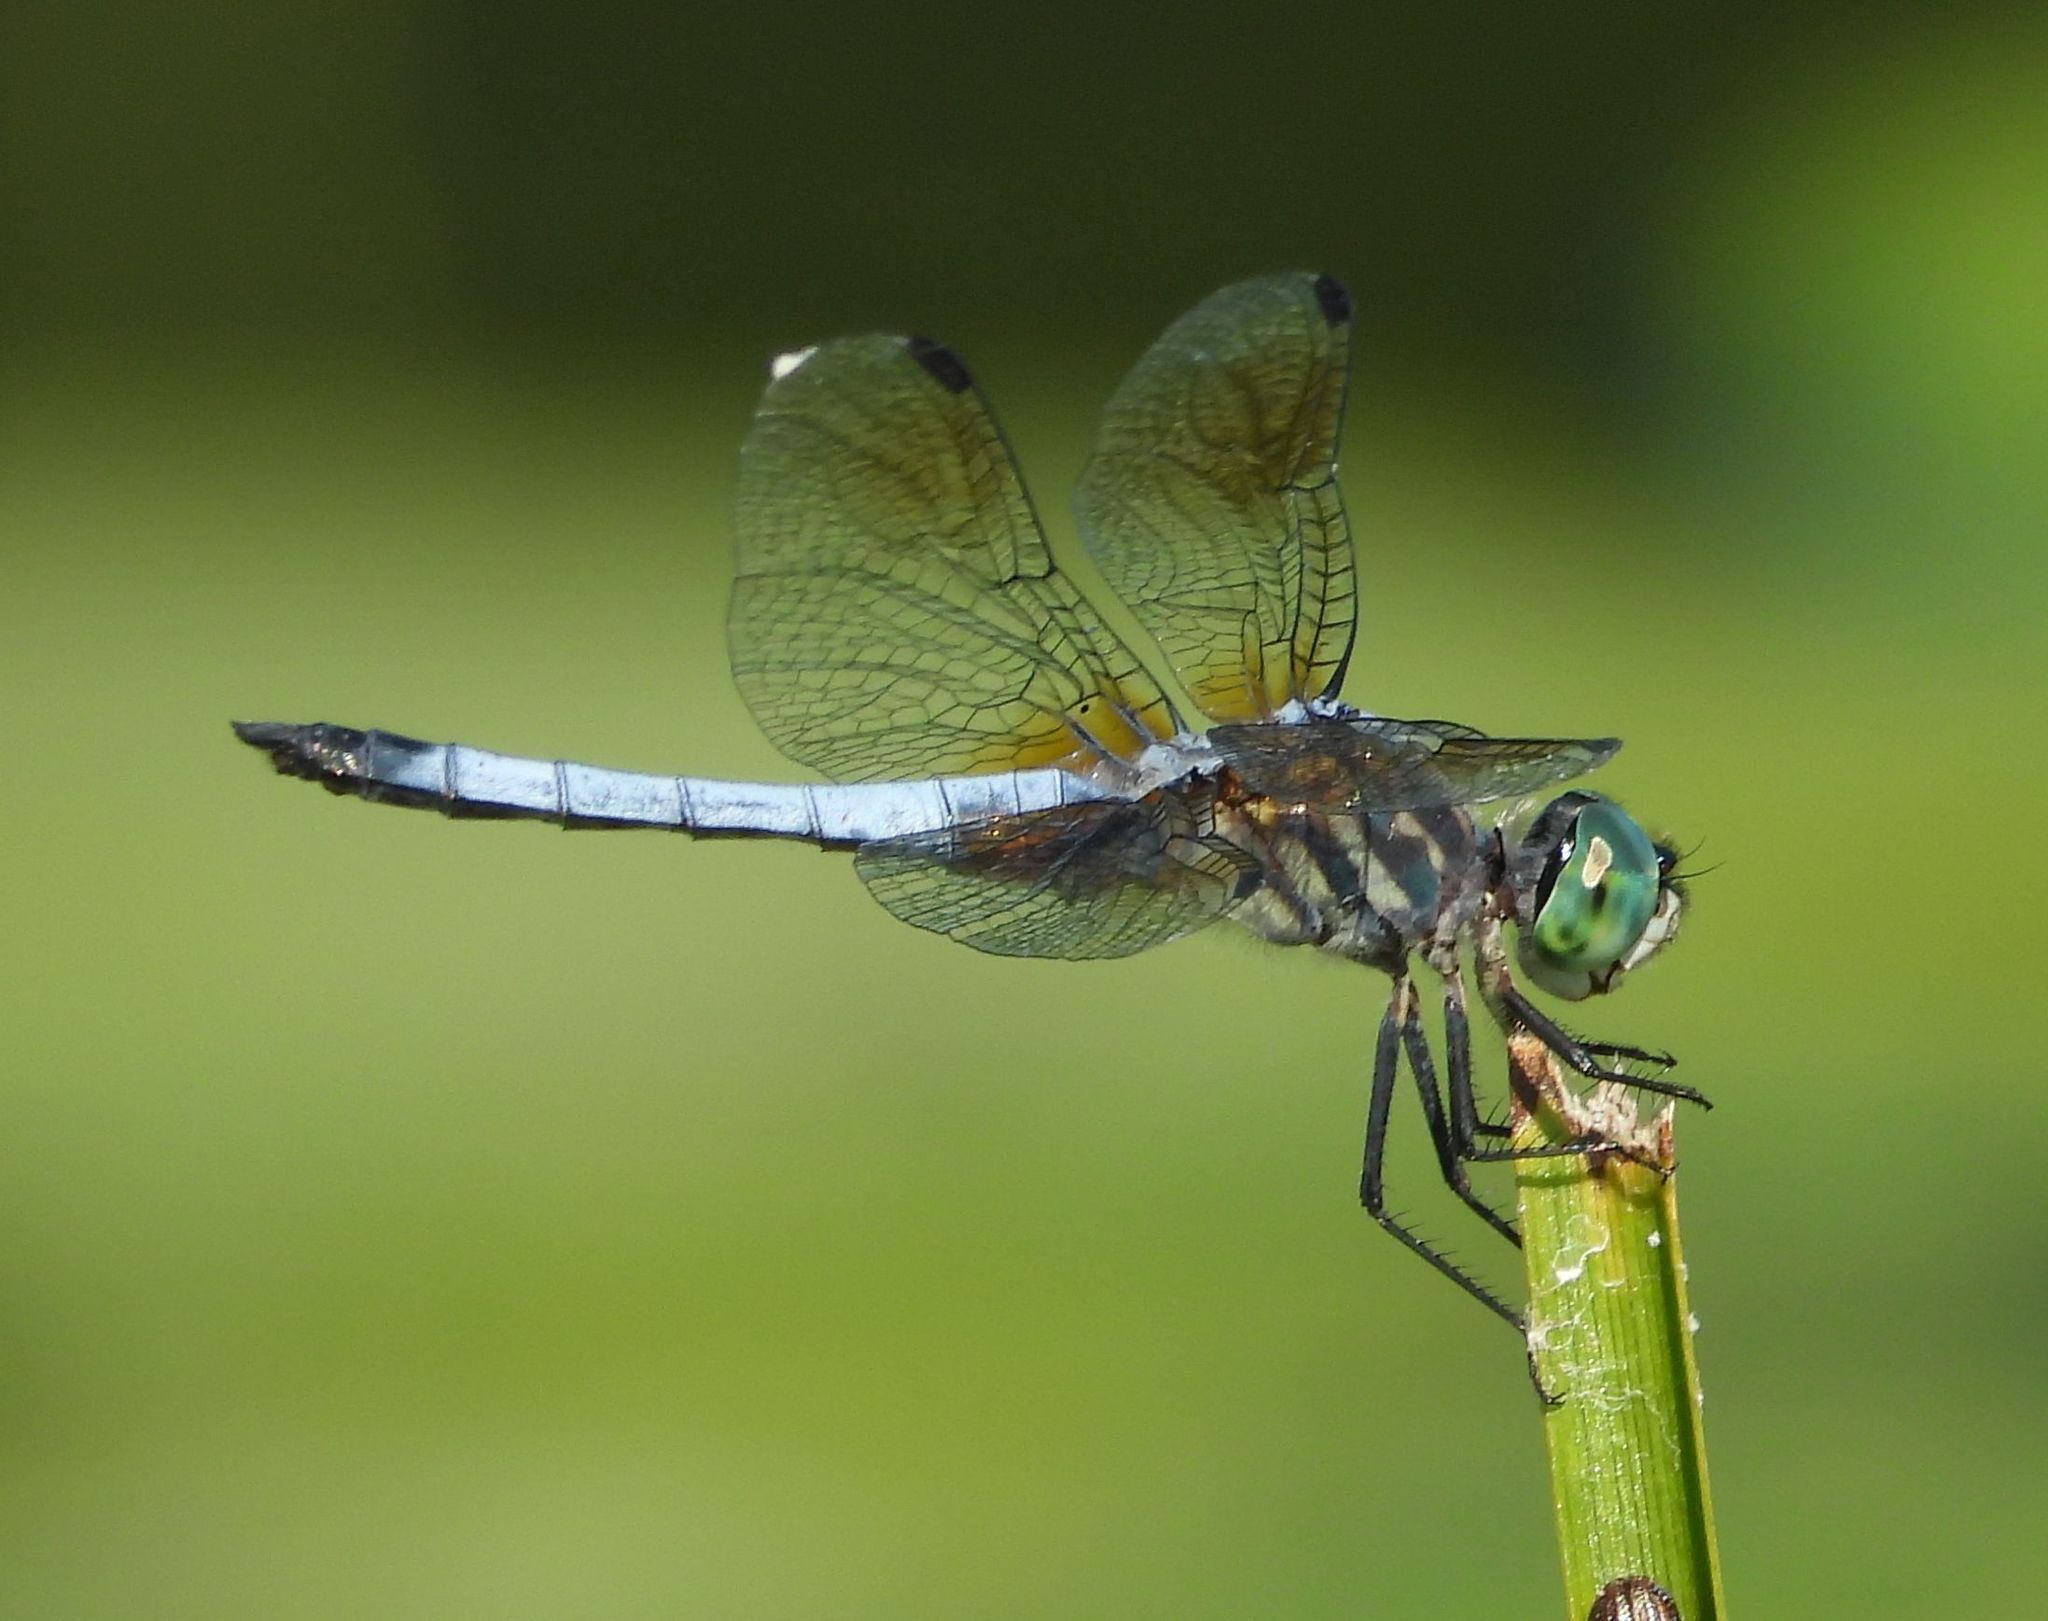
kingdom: Animalia
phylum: Arthropoda
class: Insecta
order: Odonata
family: Libellulidae
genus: Pachydiplax
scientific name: Pachydiplax longipennis
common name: Blue dasher
